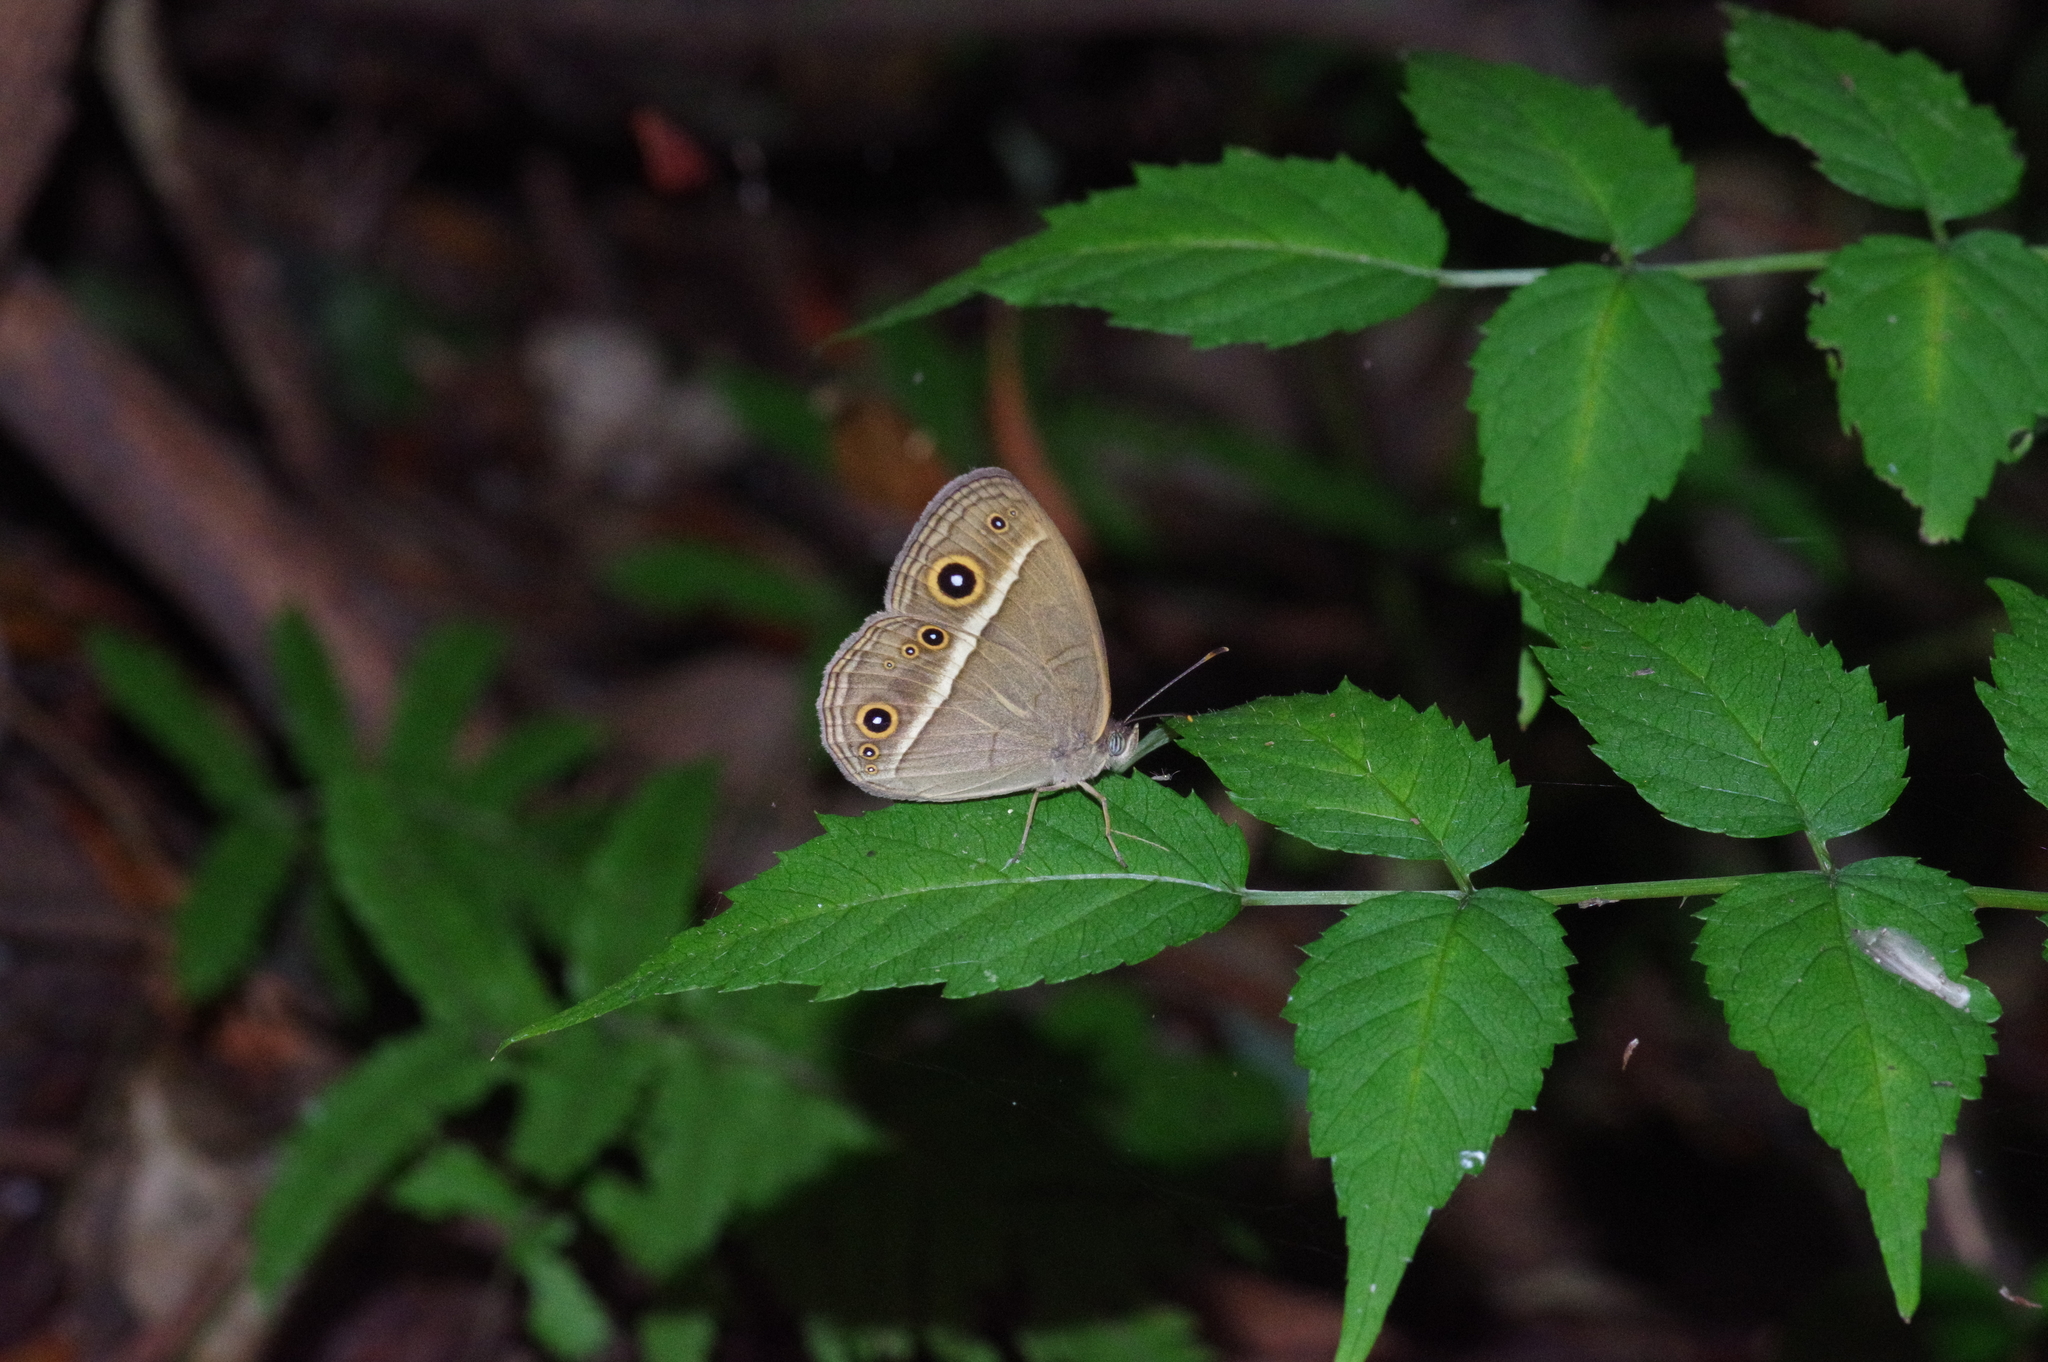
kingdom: Animalia
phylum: Arthropoda
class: Insecta
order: Lepidoptera
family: Nymphalidae
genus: Mycalesis
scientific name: Mycalesis gotama
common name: Chinese bushbrown
